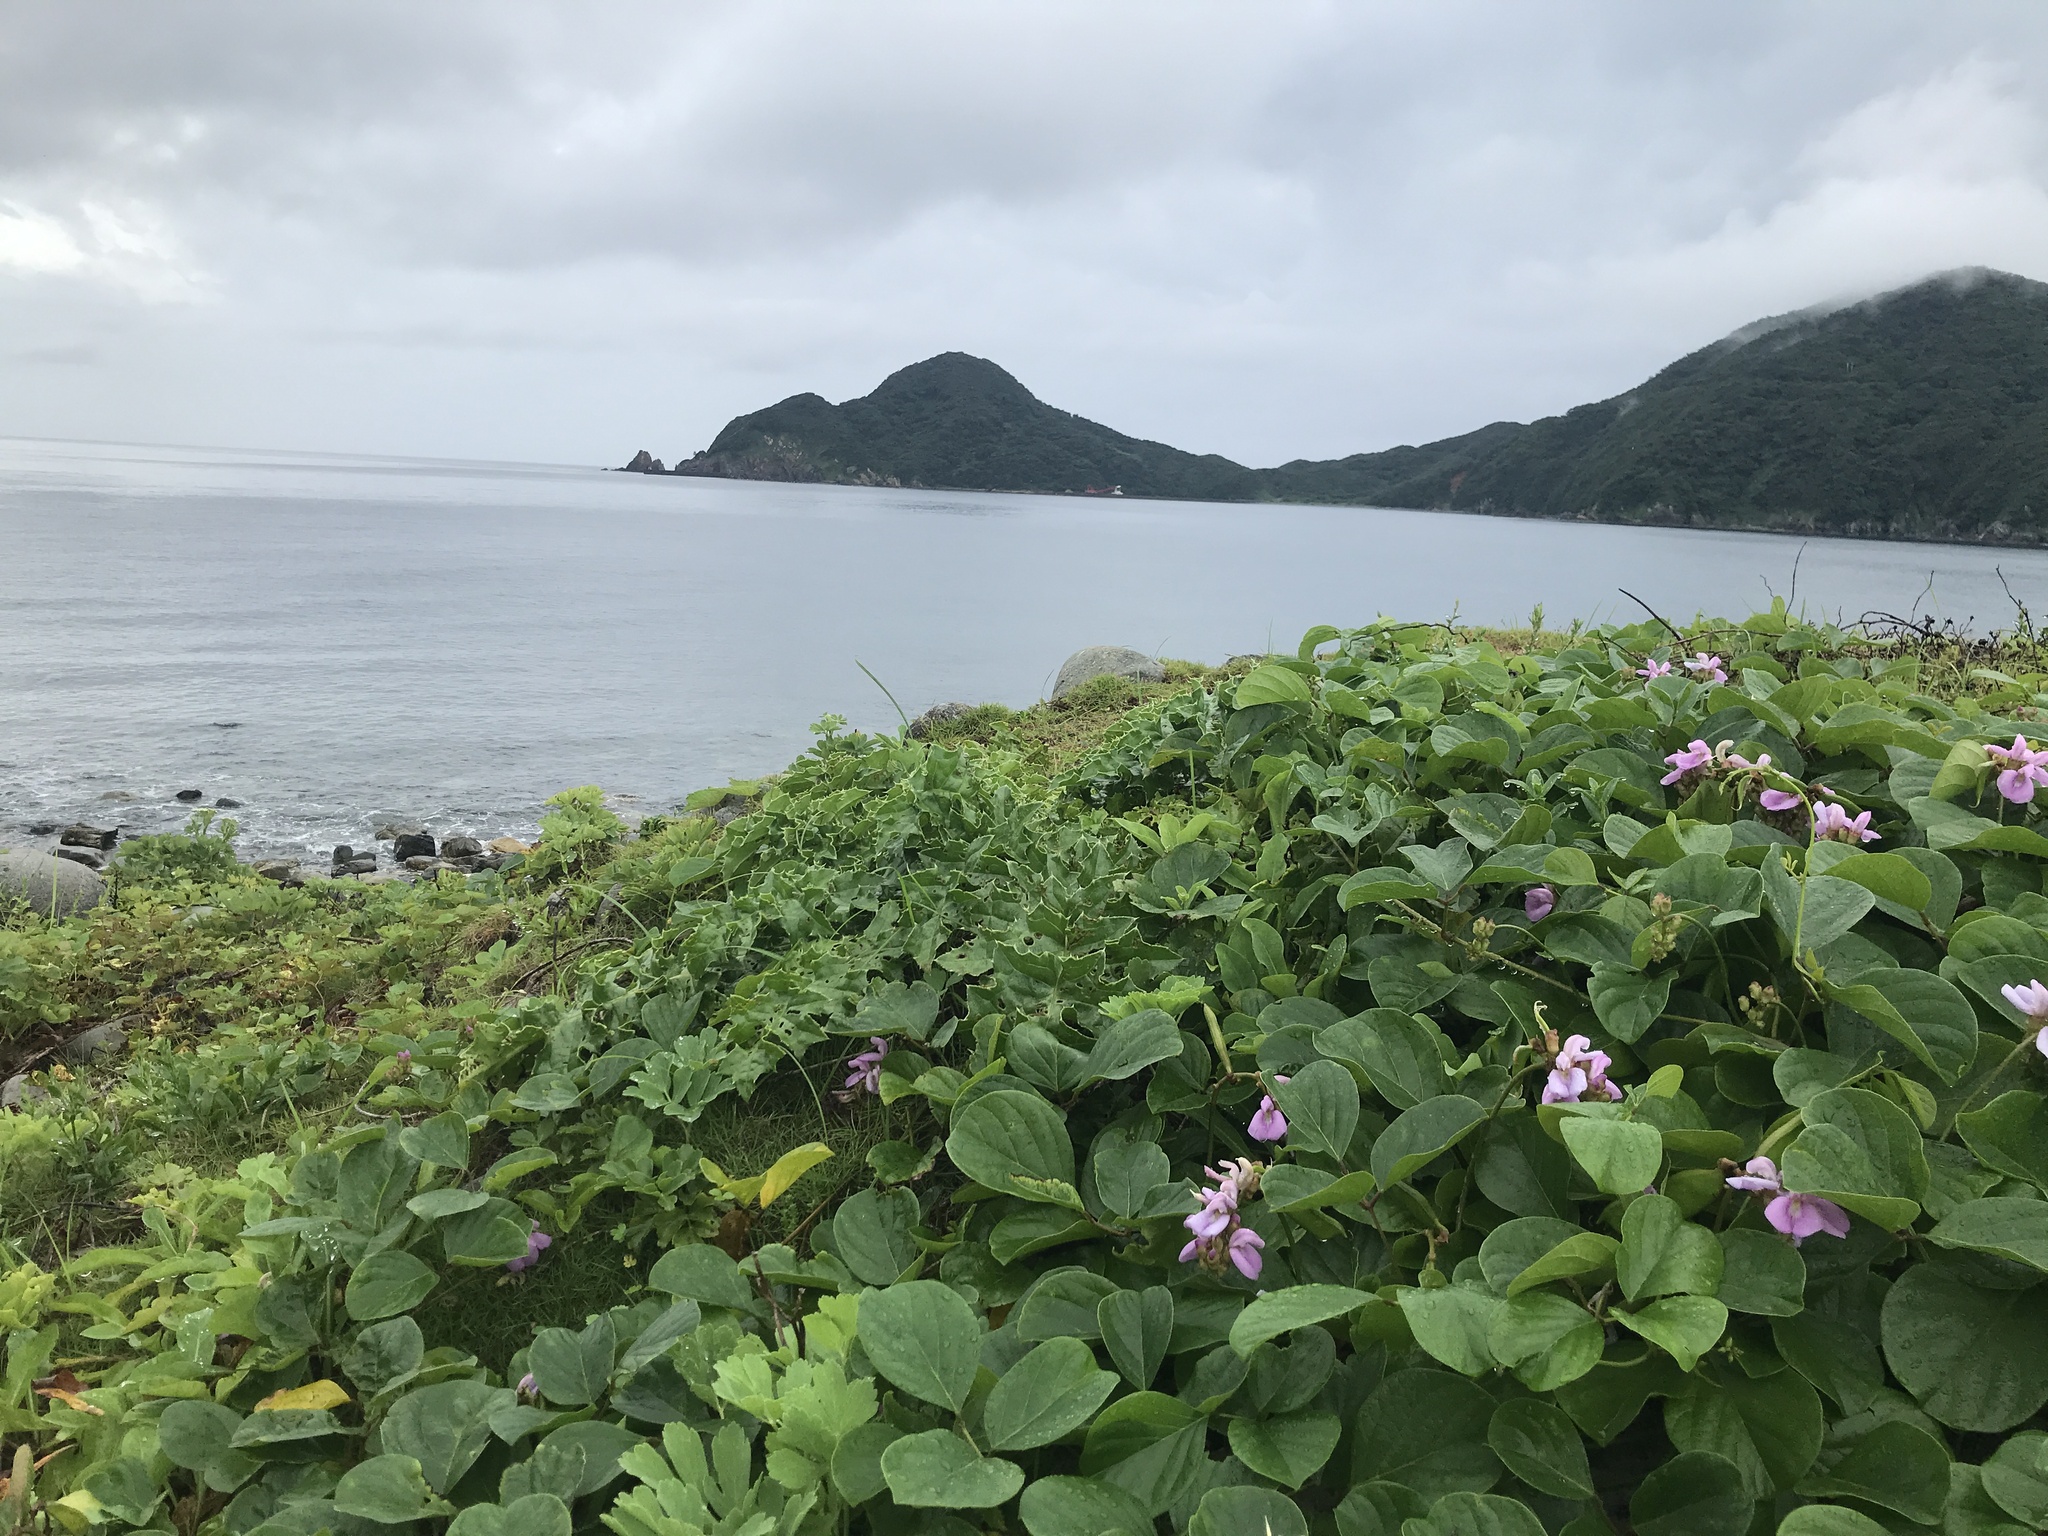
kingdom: Plantae
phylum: Tracheophyta
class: Magnoliopsida
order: Fabales
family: Fabaceae
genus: Canavalia
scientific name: Canavalia lineata
